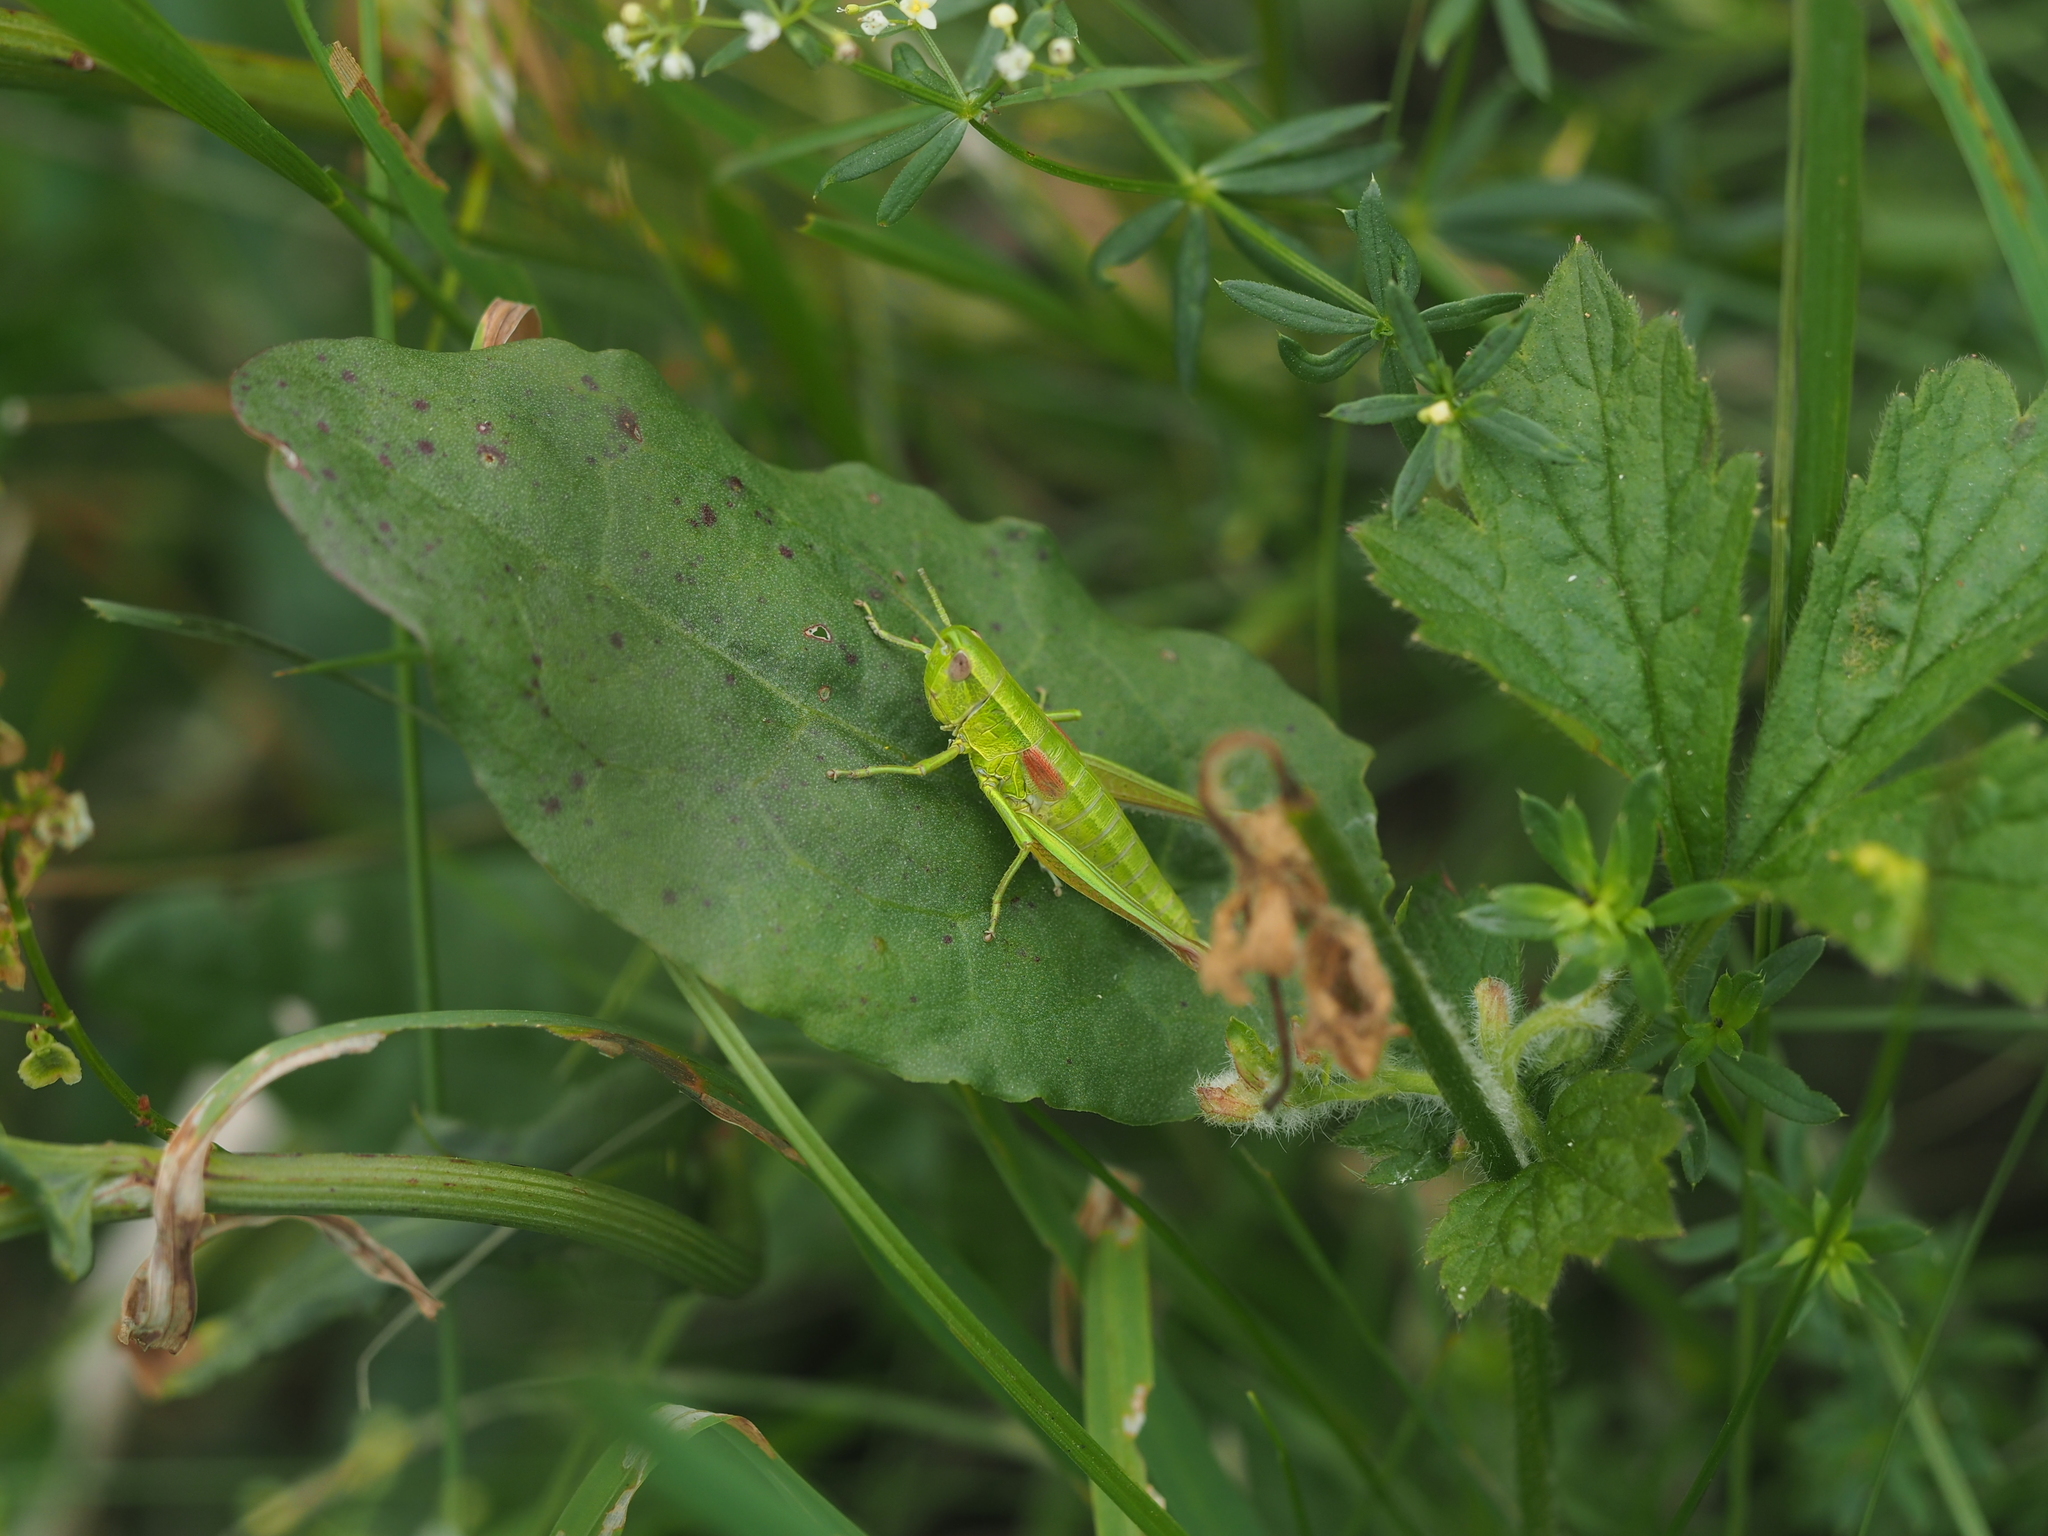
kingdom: Animalia
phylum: Arthropoda
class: Insecta
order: Orthoptera
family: Acrididae
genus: Euthystira
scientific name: Euthystira brachyptera
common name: Small gold grasshopper
